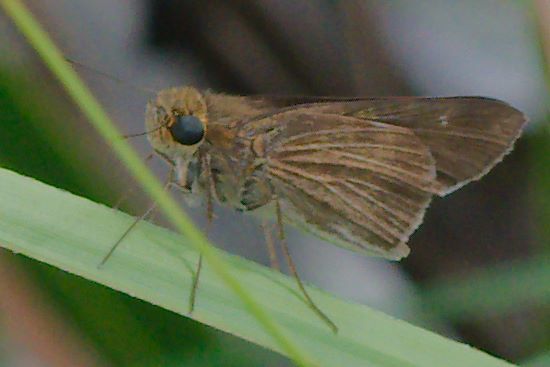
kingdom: Animalia
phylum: Arthropoda
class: Insecta
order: Lepidoptera
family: Hesperiidae
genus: Panoquina
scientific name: Panoquina ocola
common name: Ocola skipper
